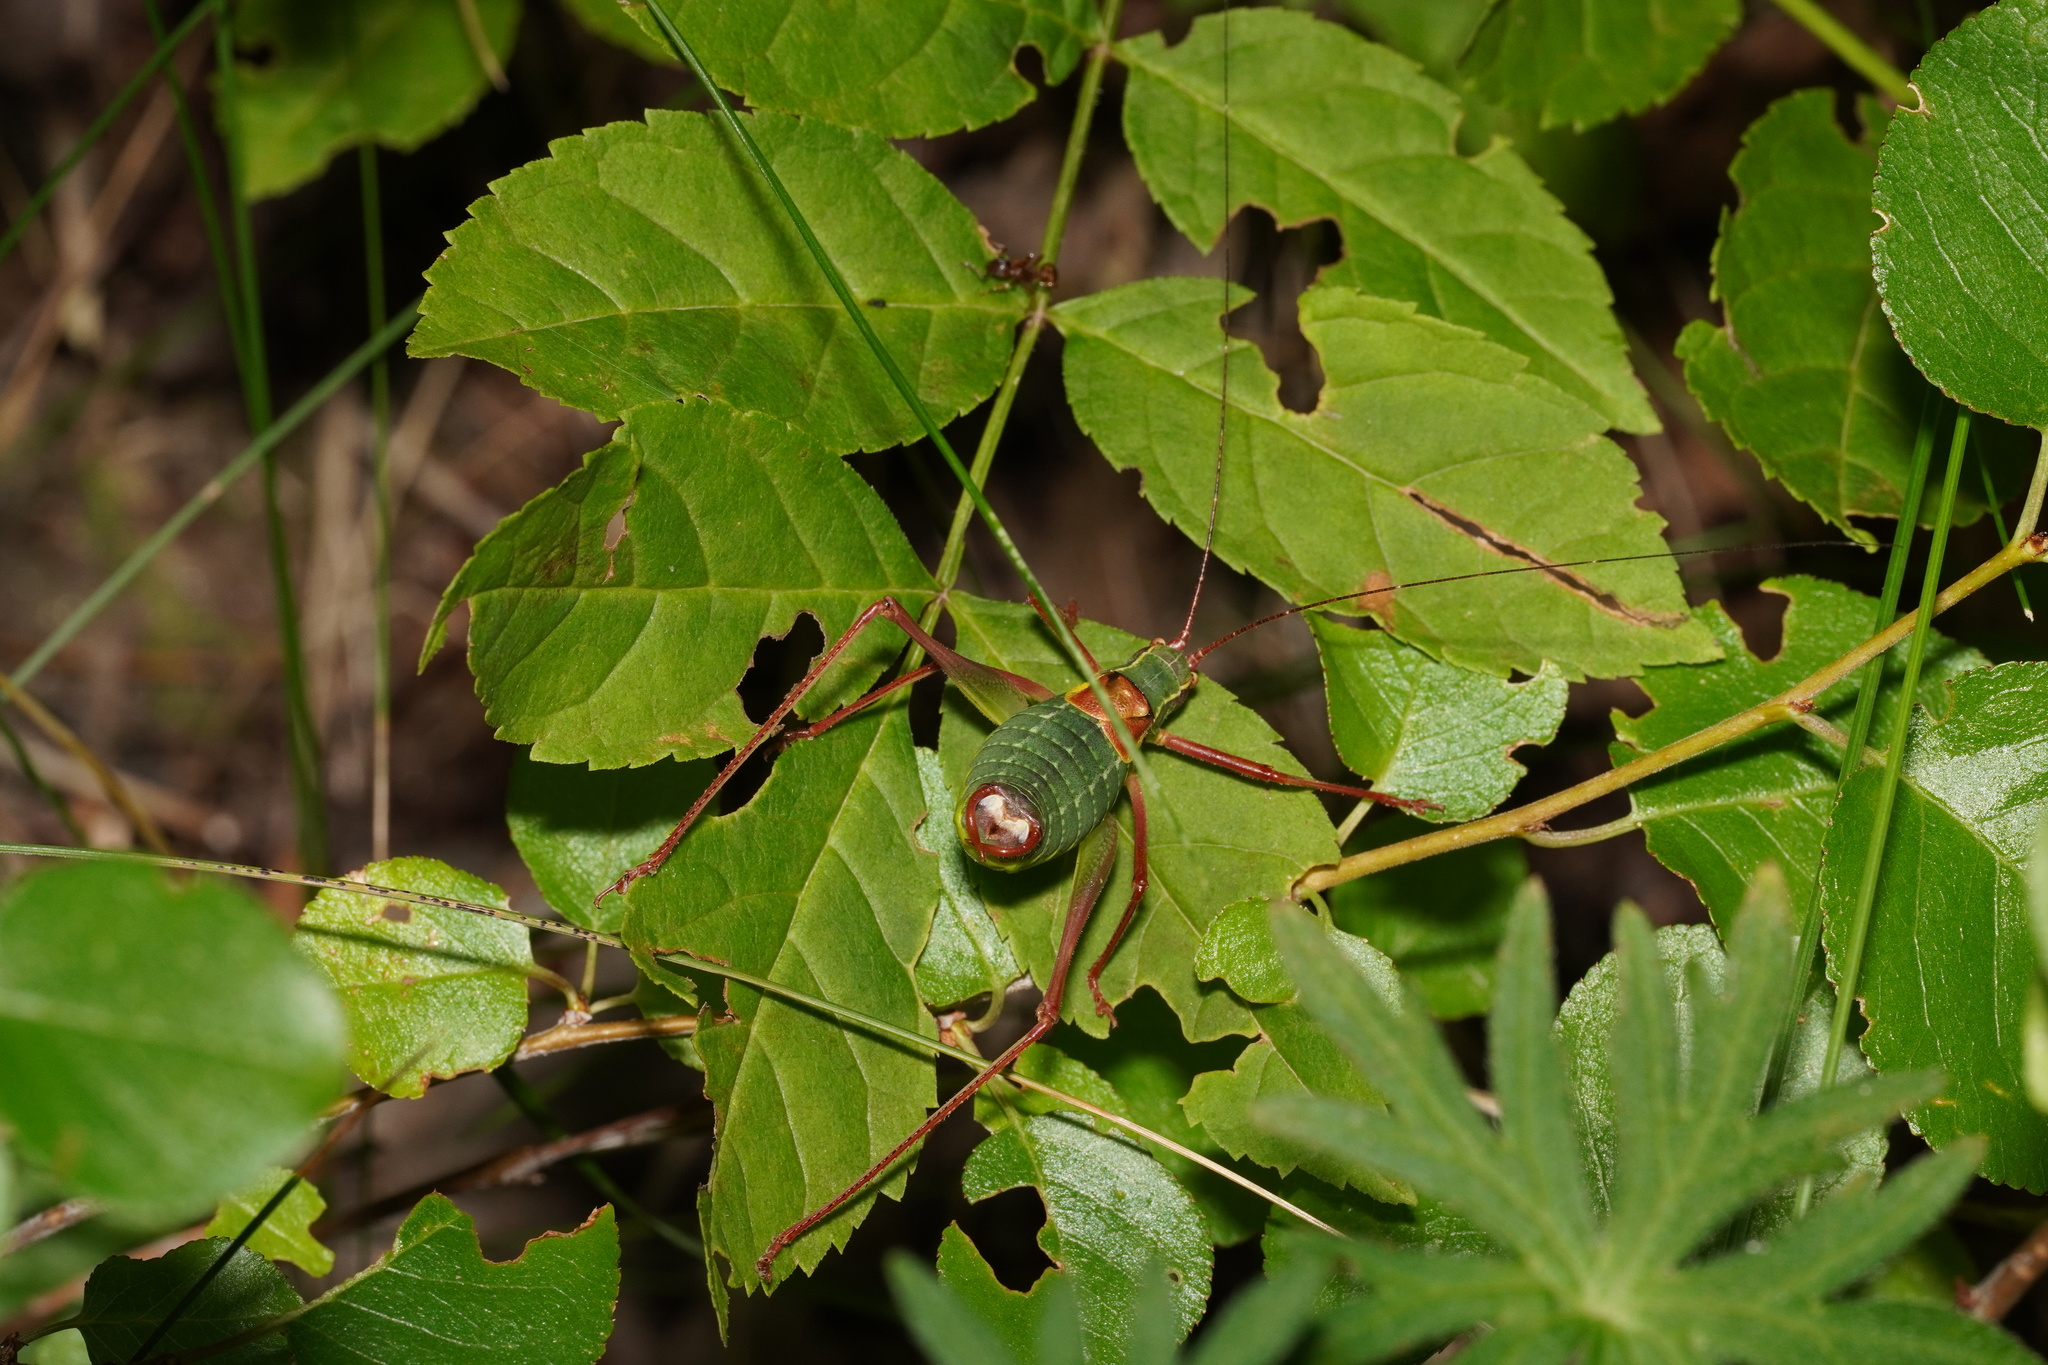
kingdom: Animalia
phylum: Arthropoda
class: Insecta
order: Orthoptera
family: Tettigoniidae
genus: Barbitistes
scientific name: Barbitistes obtusus
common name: Alpine saw bush-cricket
